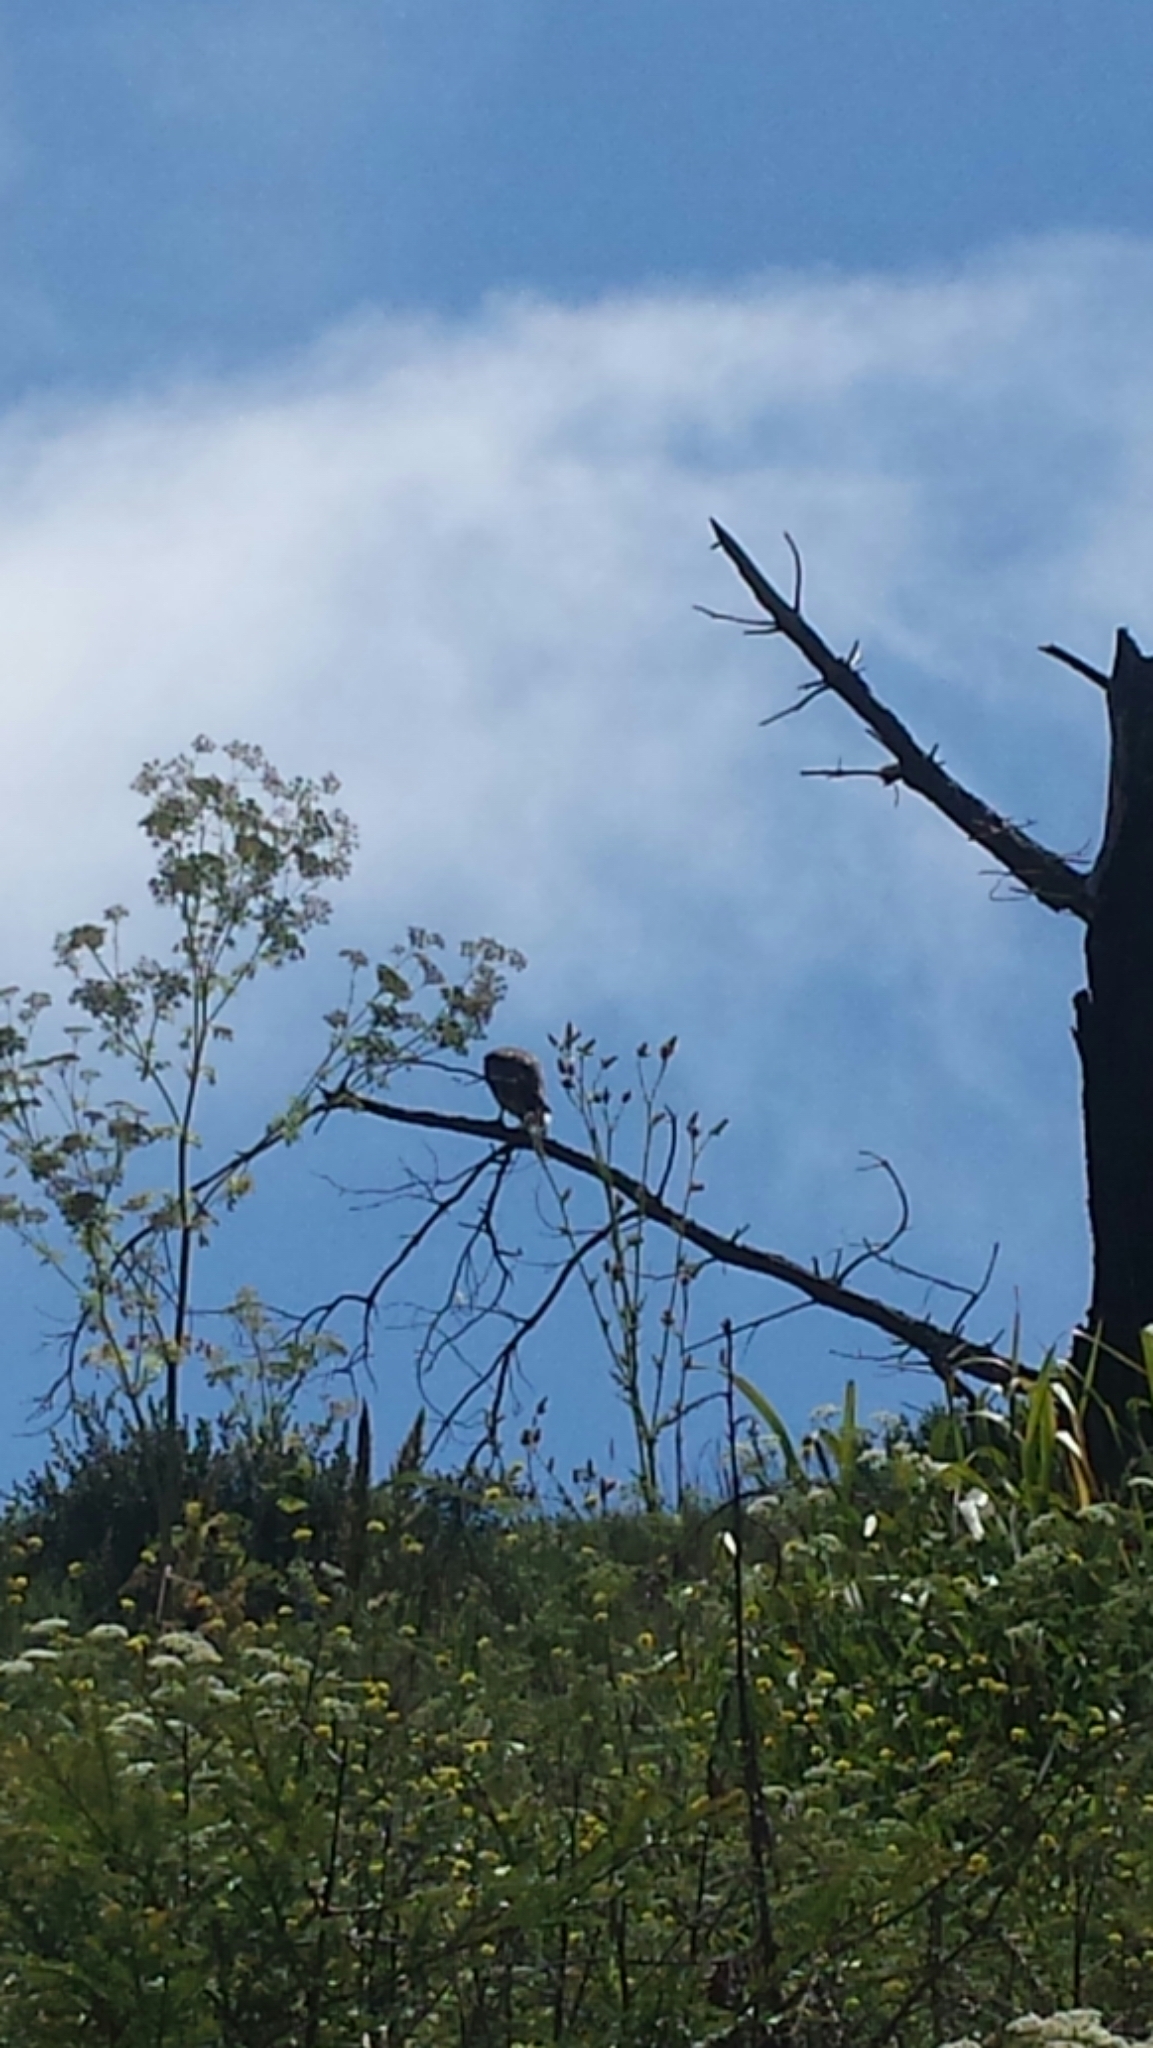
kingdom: Animalia
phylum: Chordata
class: Aves
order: Accipitriformes
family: Accipitridae
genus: Buteo
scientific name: Buteo jamaicensis
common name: Red-tailed hawk
